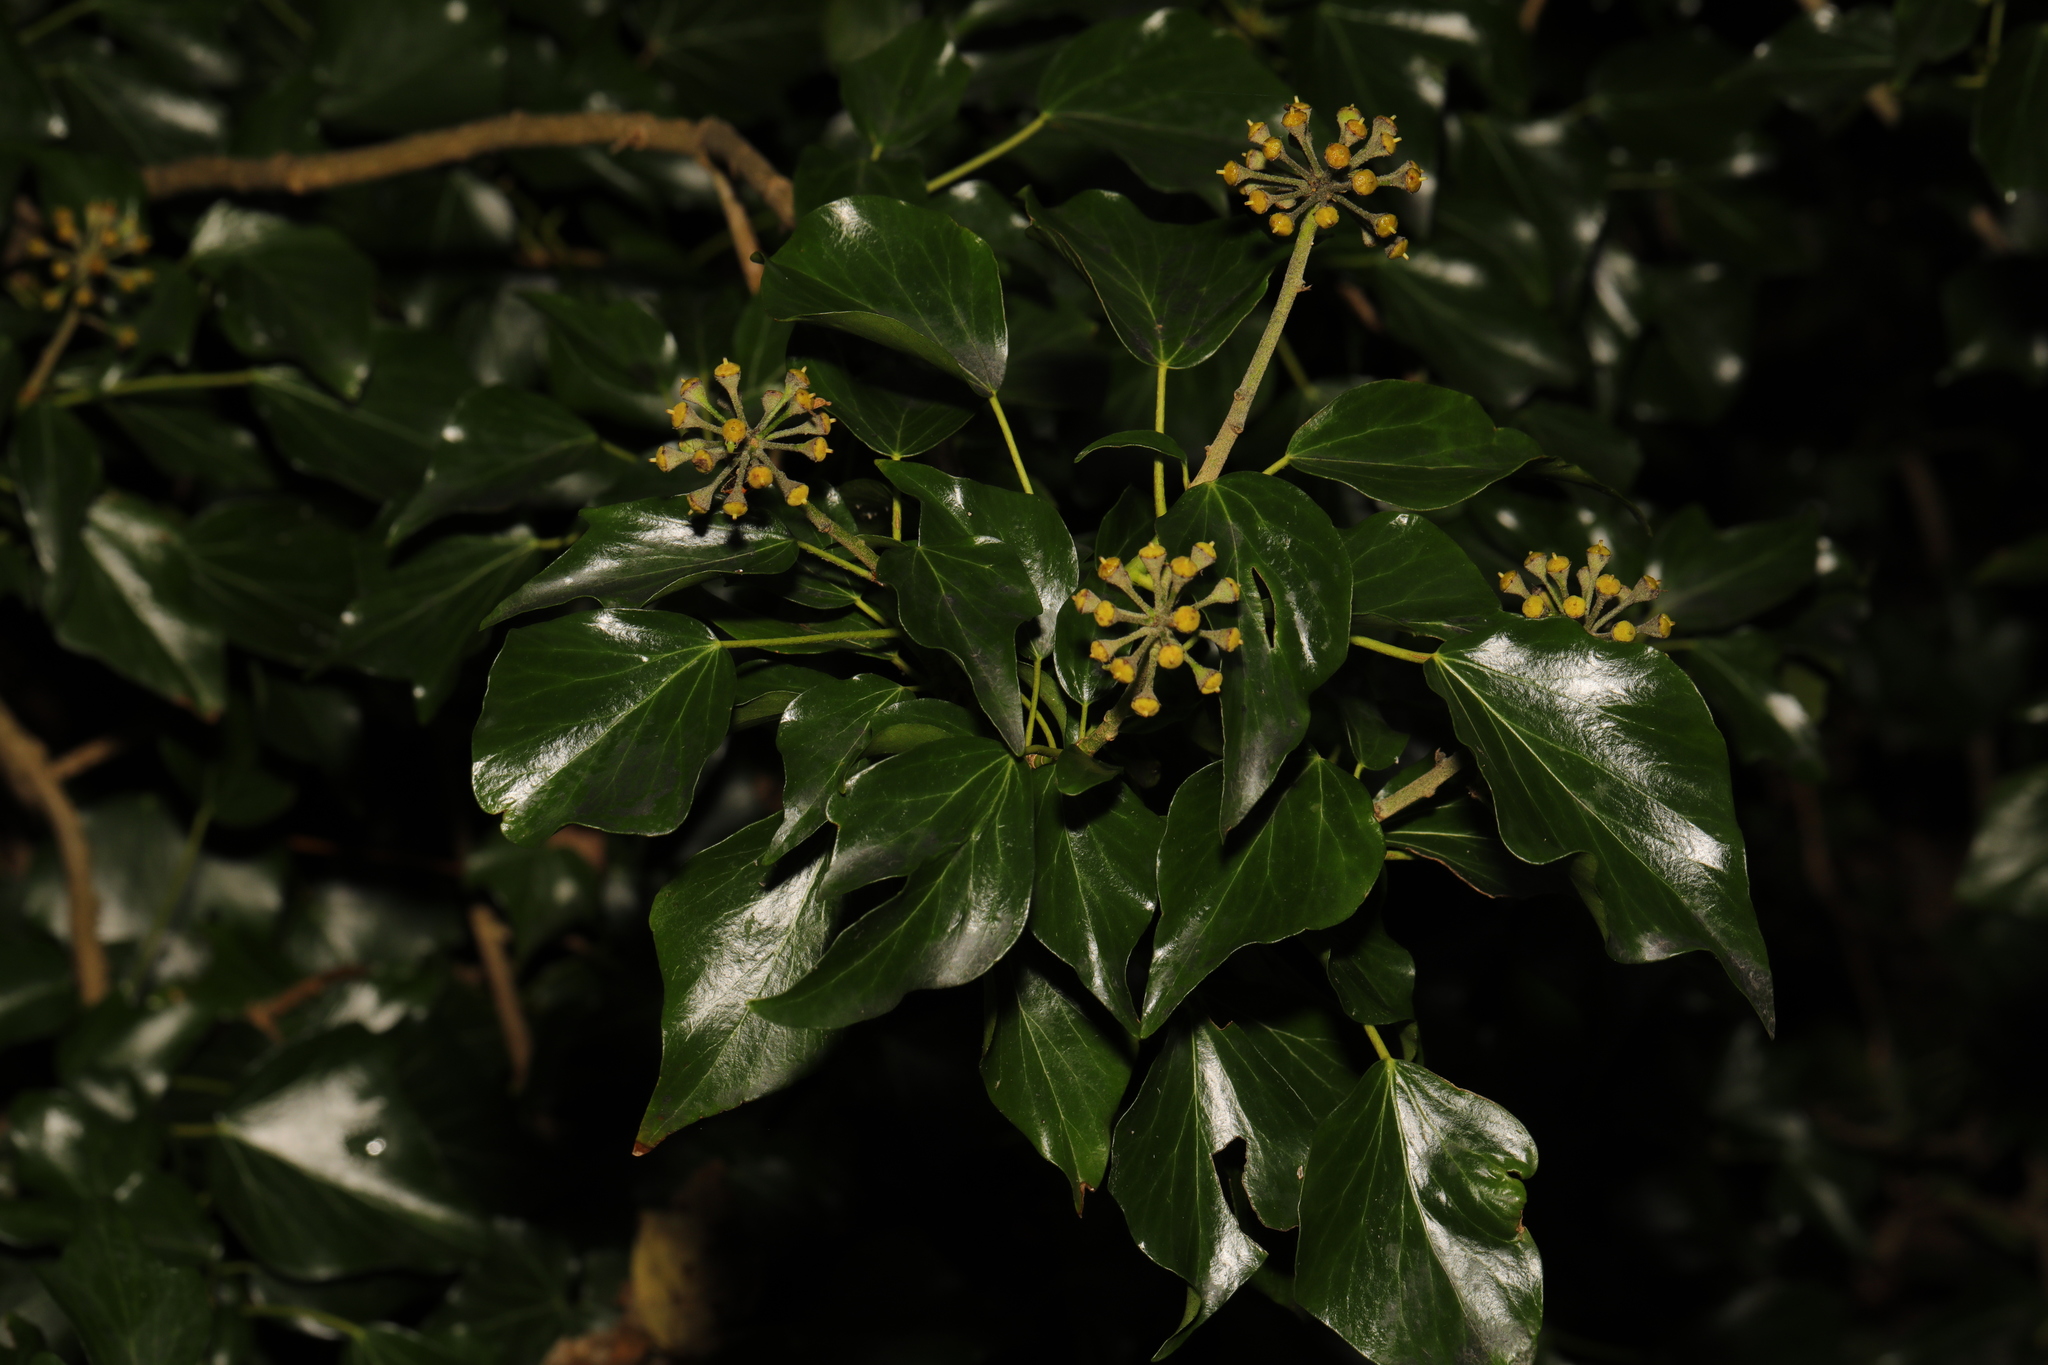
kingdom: Plantae
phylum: Tracheophyta
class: Magnoliopsida
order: Apiales
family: Araliaceae
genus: Hedera
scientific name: Hedera helix
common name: Ivy
